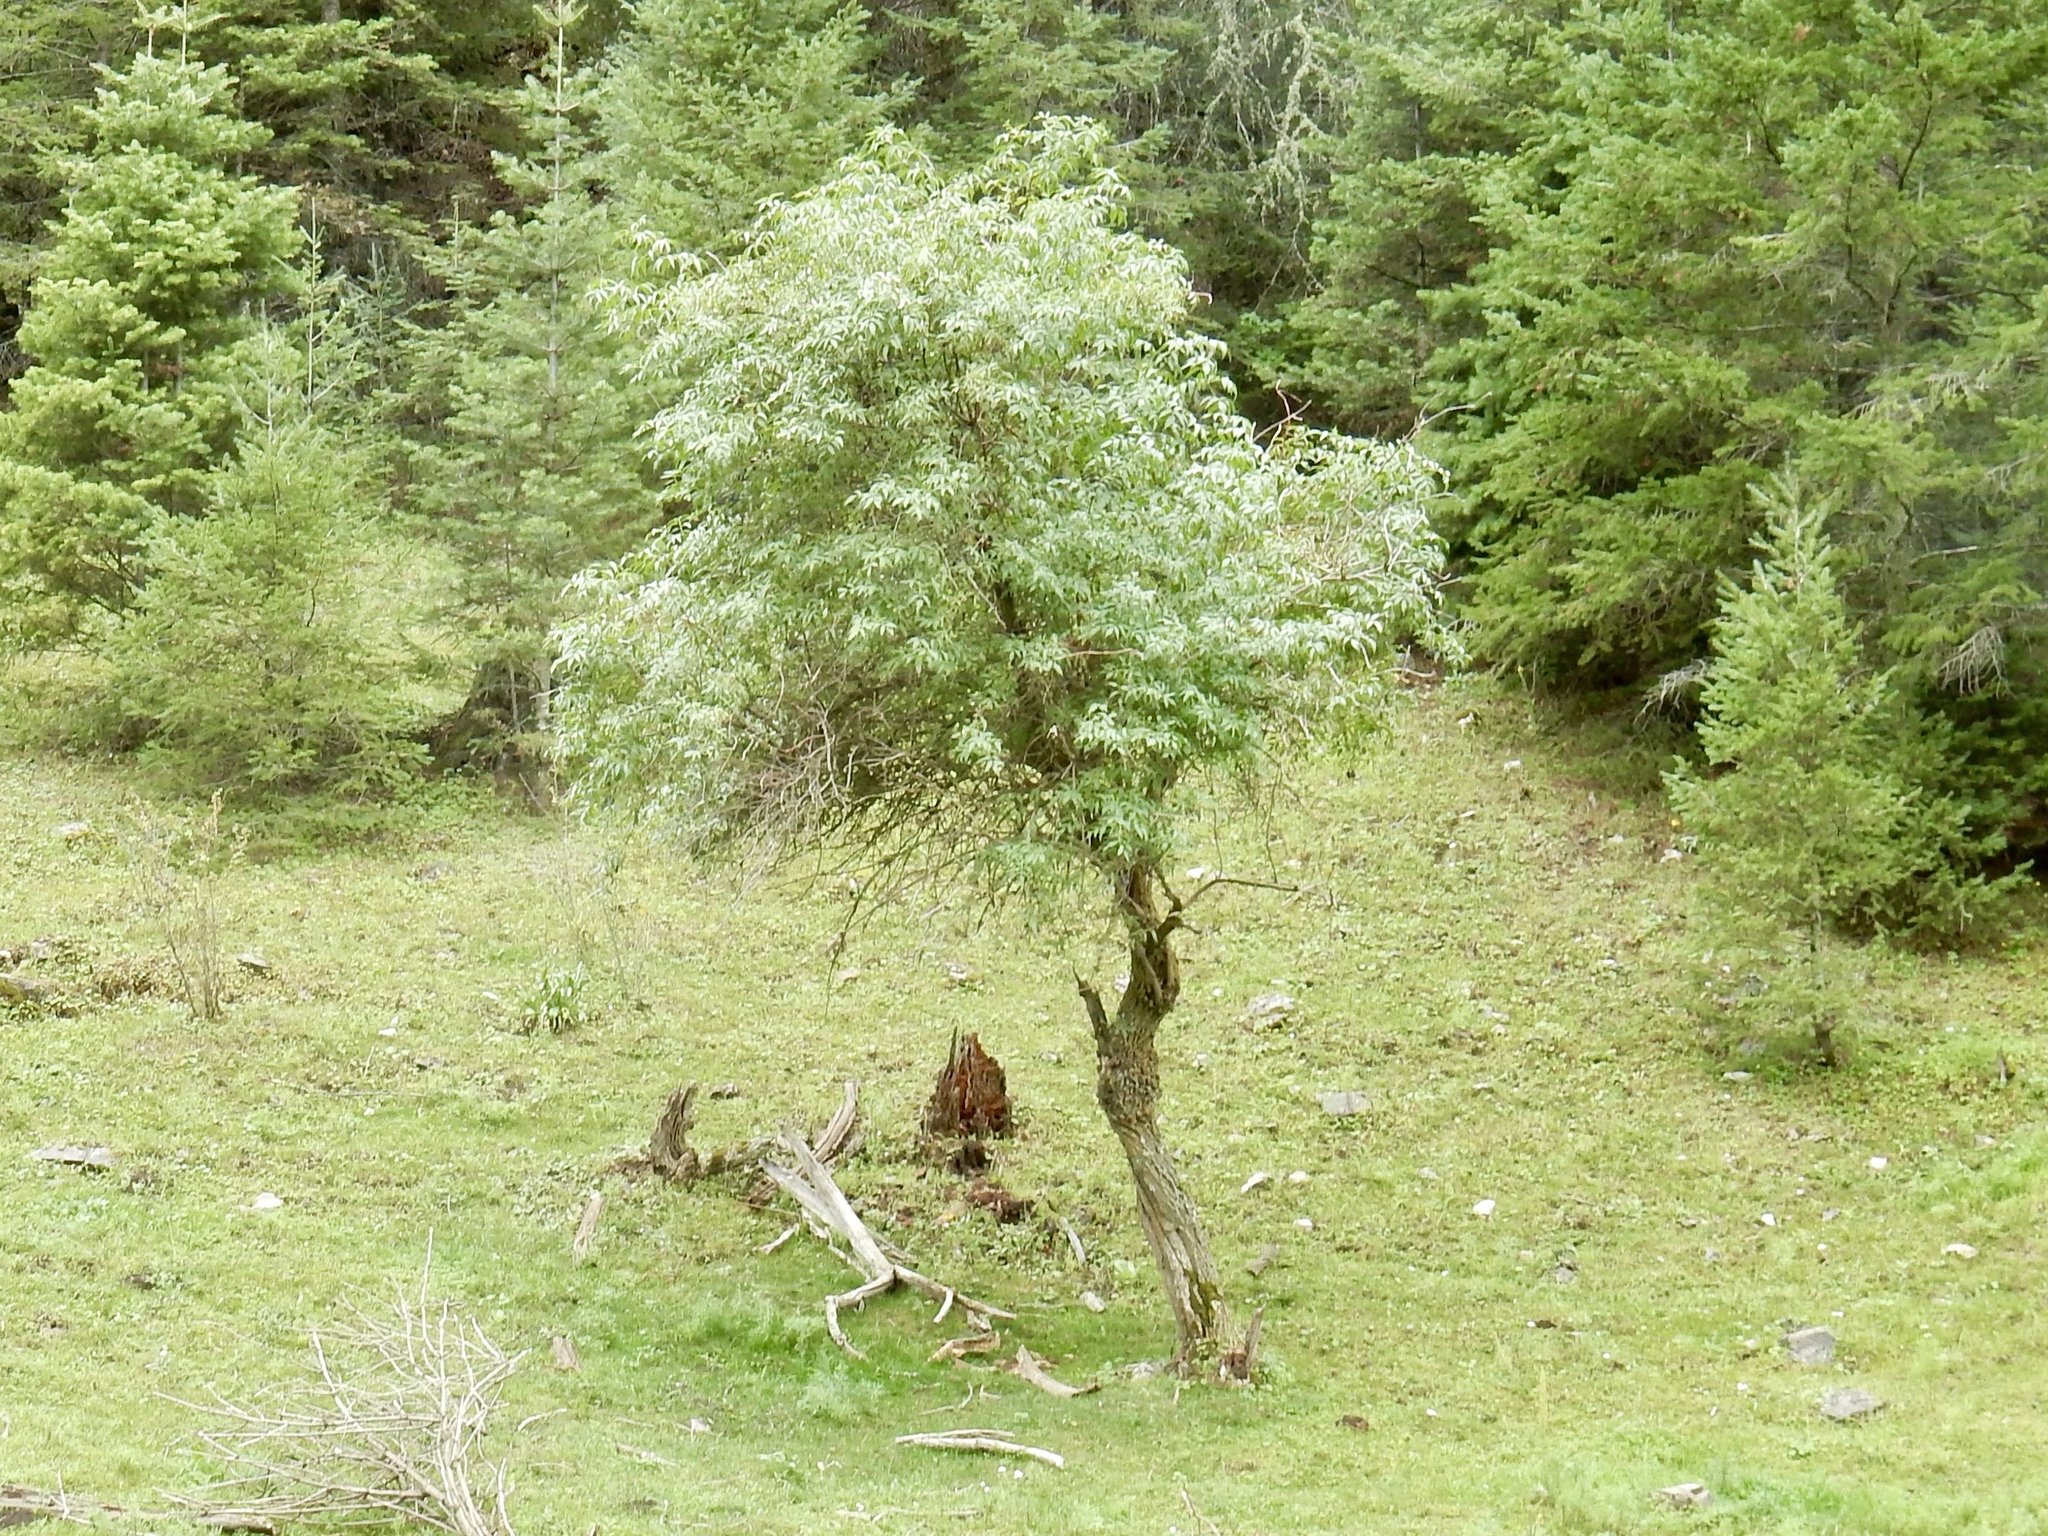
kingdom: Plantae
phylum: Tracheophyta
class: Magnoliopsida
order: Dipsacales
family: Viburnaceae
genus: Sambucus
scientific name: Sambucus cerulea
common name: Blue elder
